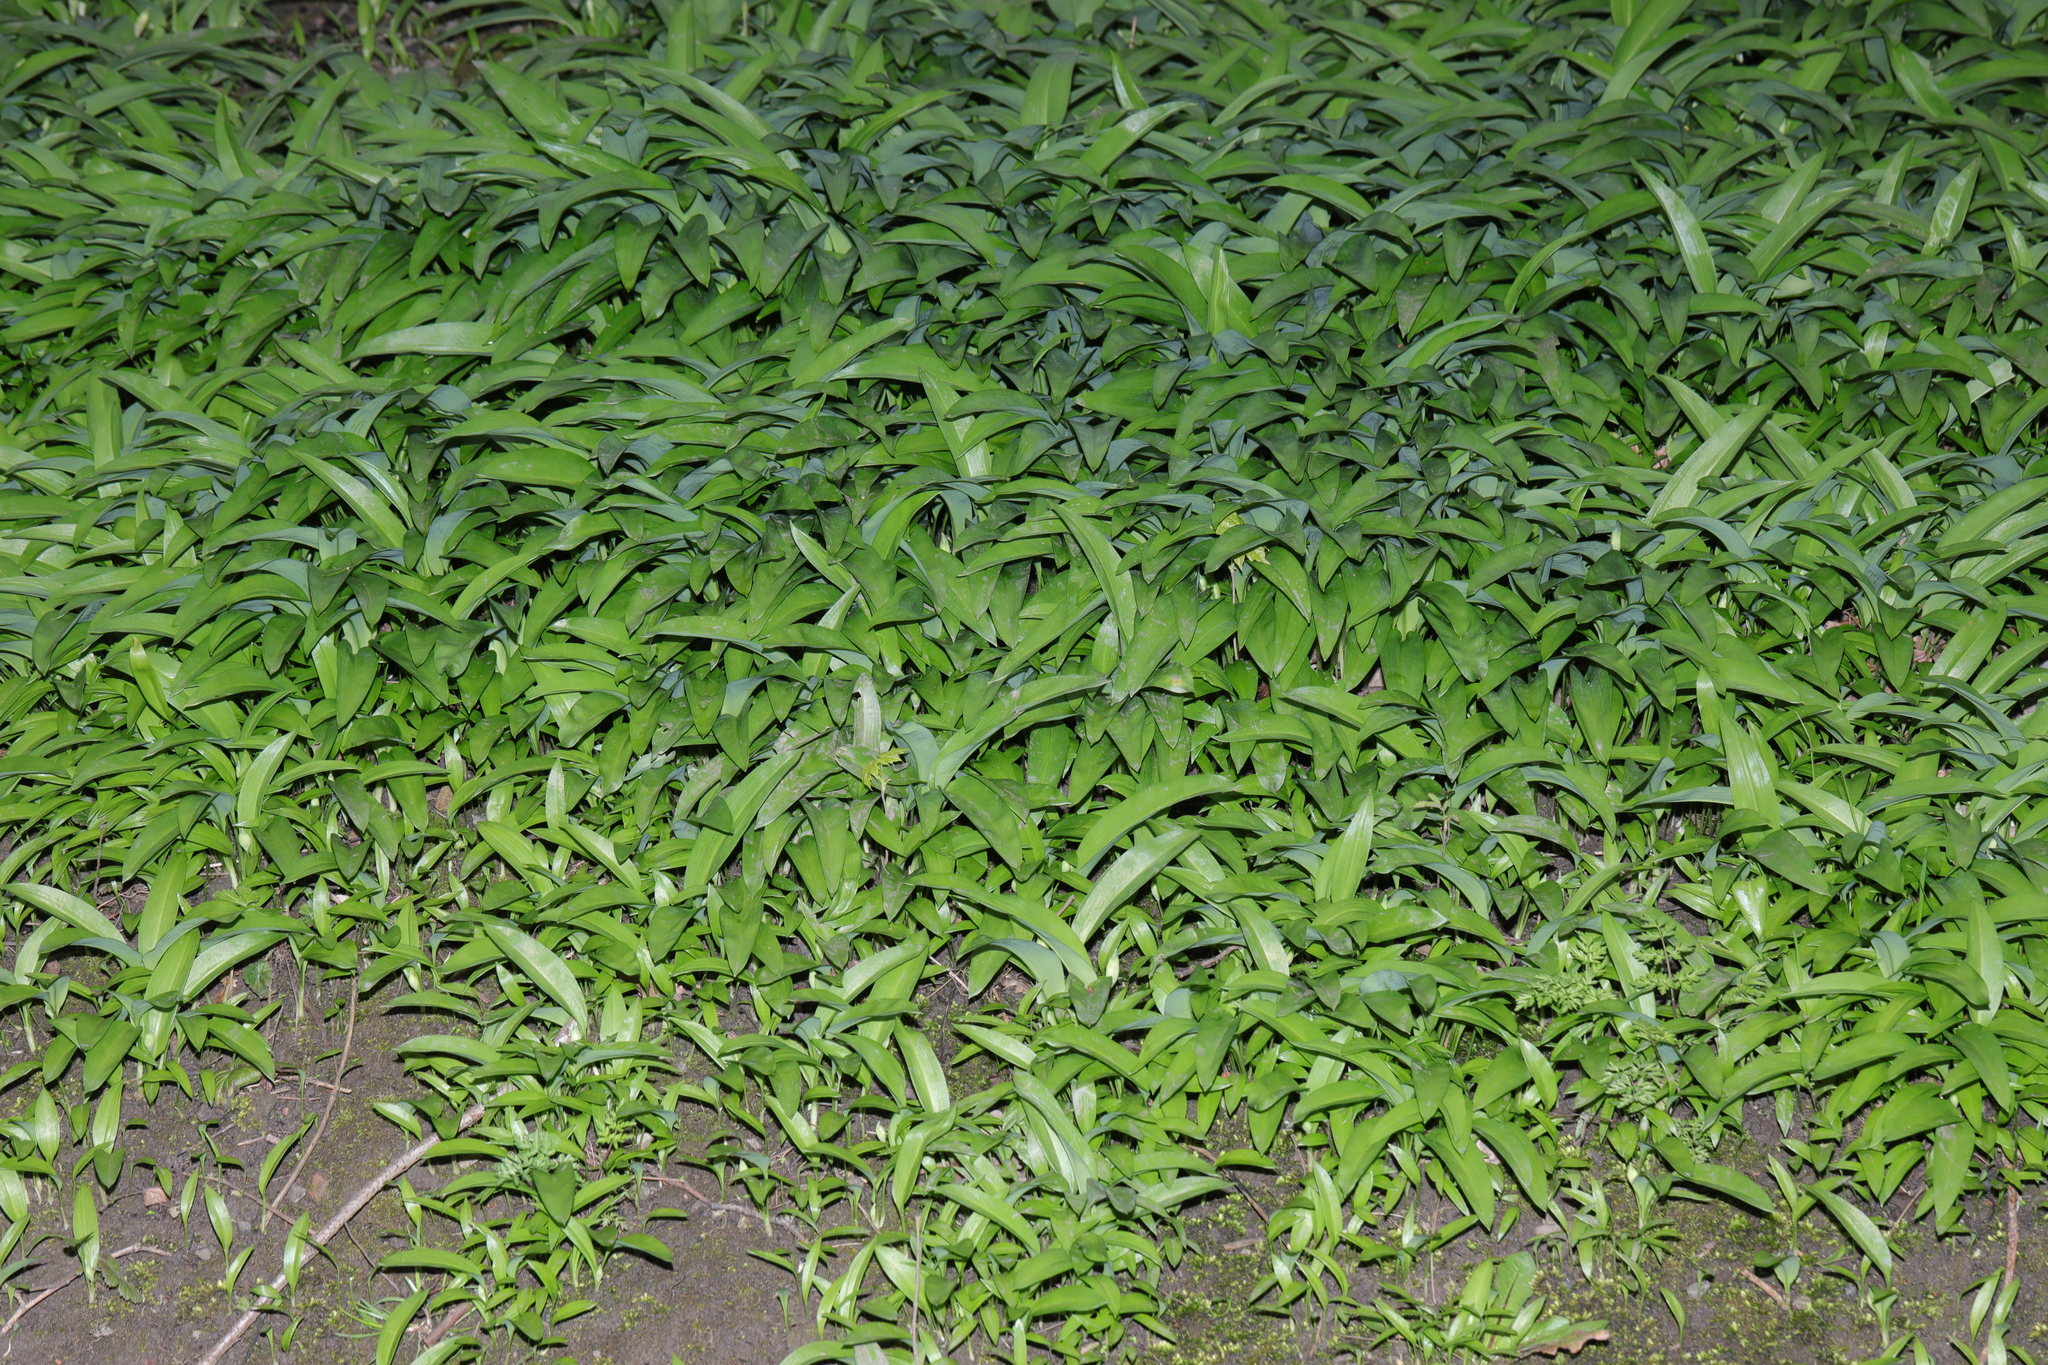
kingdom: Plantae
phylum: Tracheophyta
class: Liliopsida
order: Asparagales
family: Amaryllidaceae
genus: Allium
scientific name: Allium ursinum
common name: Ramsons
